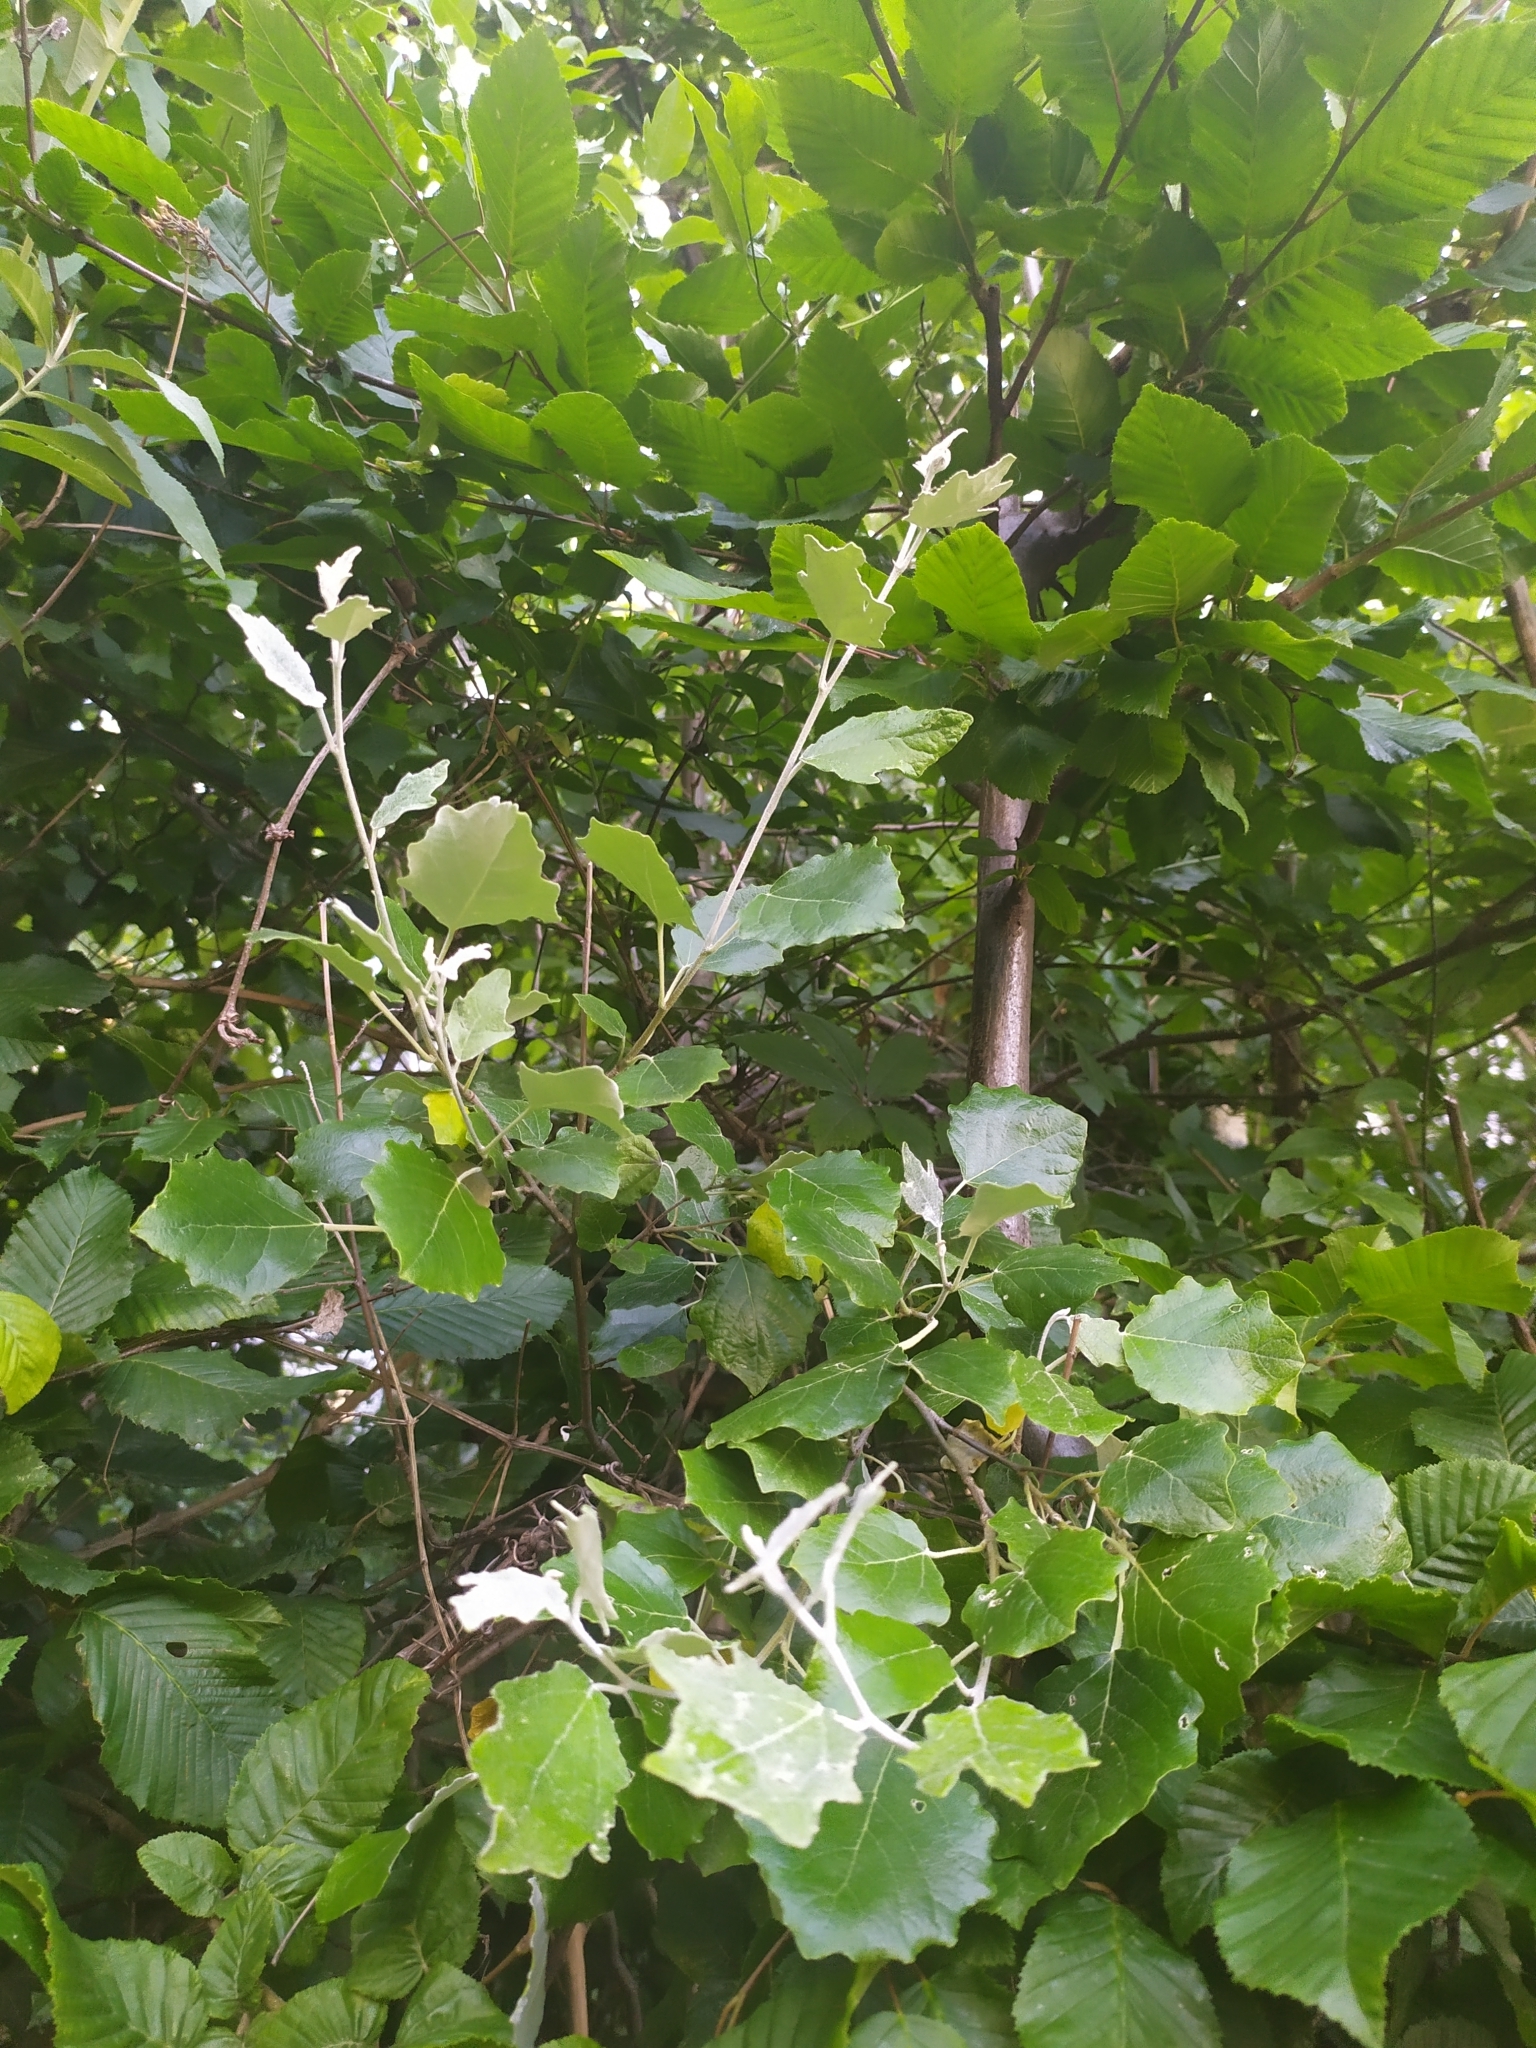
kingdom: Plantae
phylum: Tracheophyta
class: Magnoliopsida
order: Malpighiales
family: Salicaceae
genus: Populus
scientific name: Populus alba
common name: White poplar
